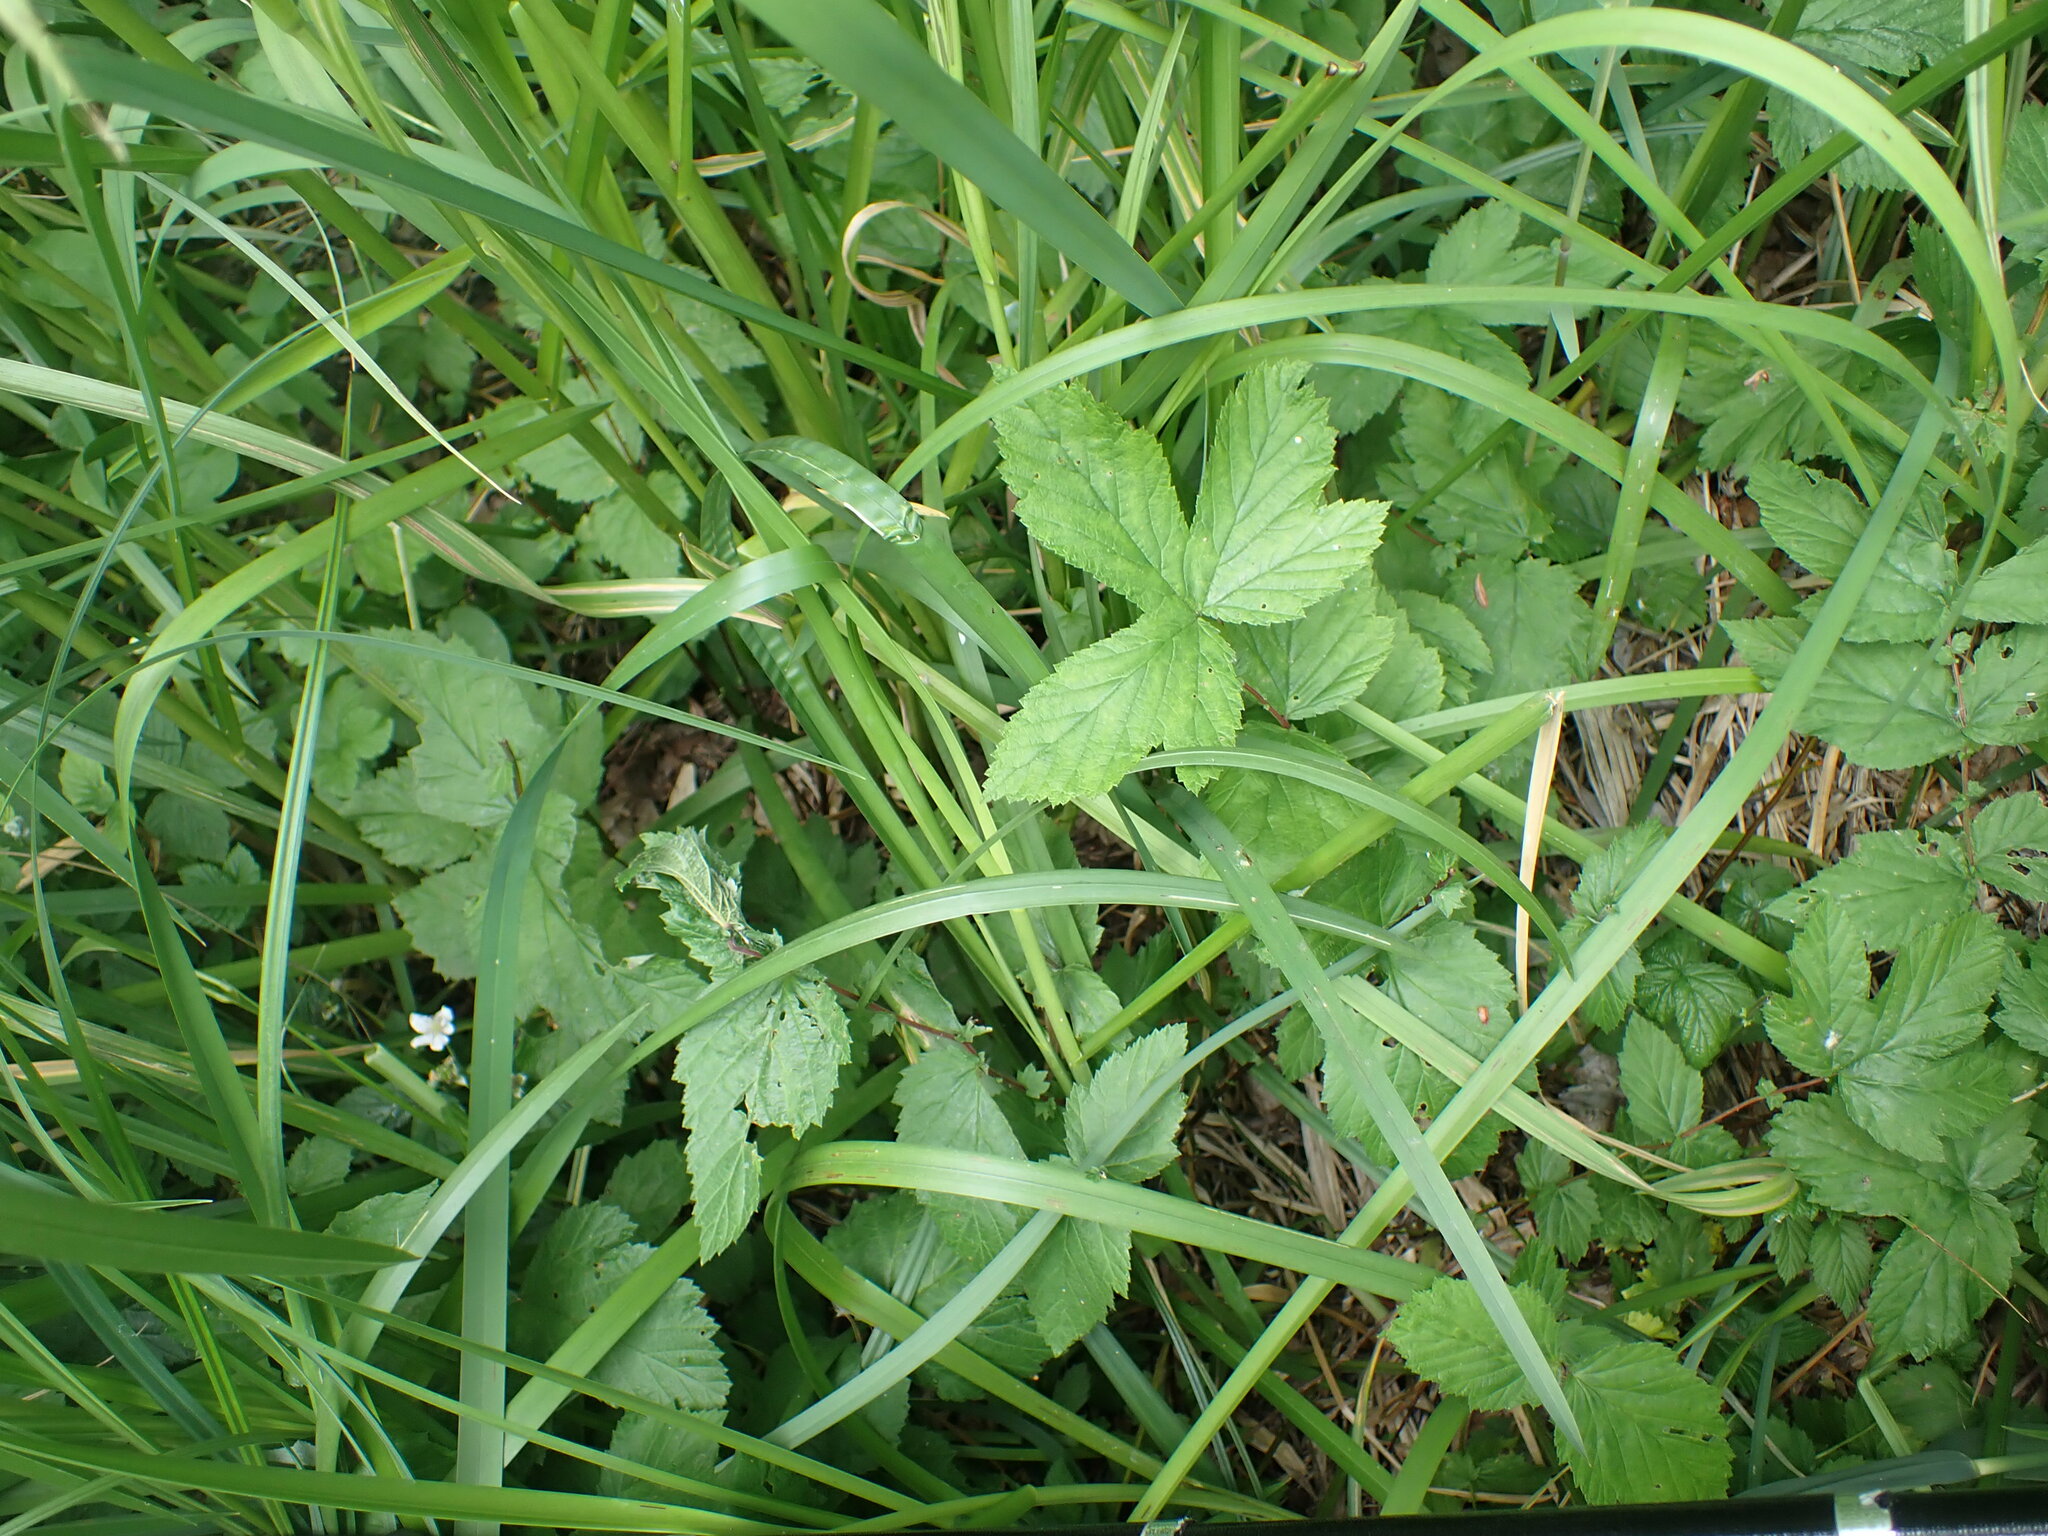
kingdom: Plantae
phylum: Tracheophyta
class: Magnoliopsida
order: Rosales
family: Rosaceae
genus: Filipendula
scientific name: Filipendula ulmaria
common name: Meadowsweet
